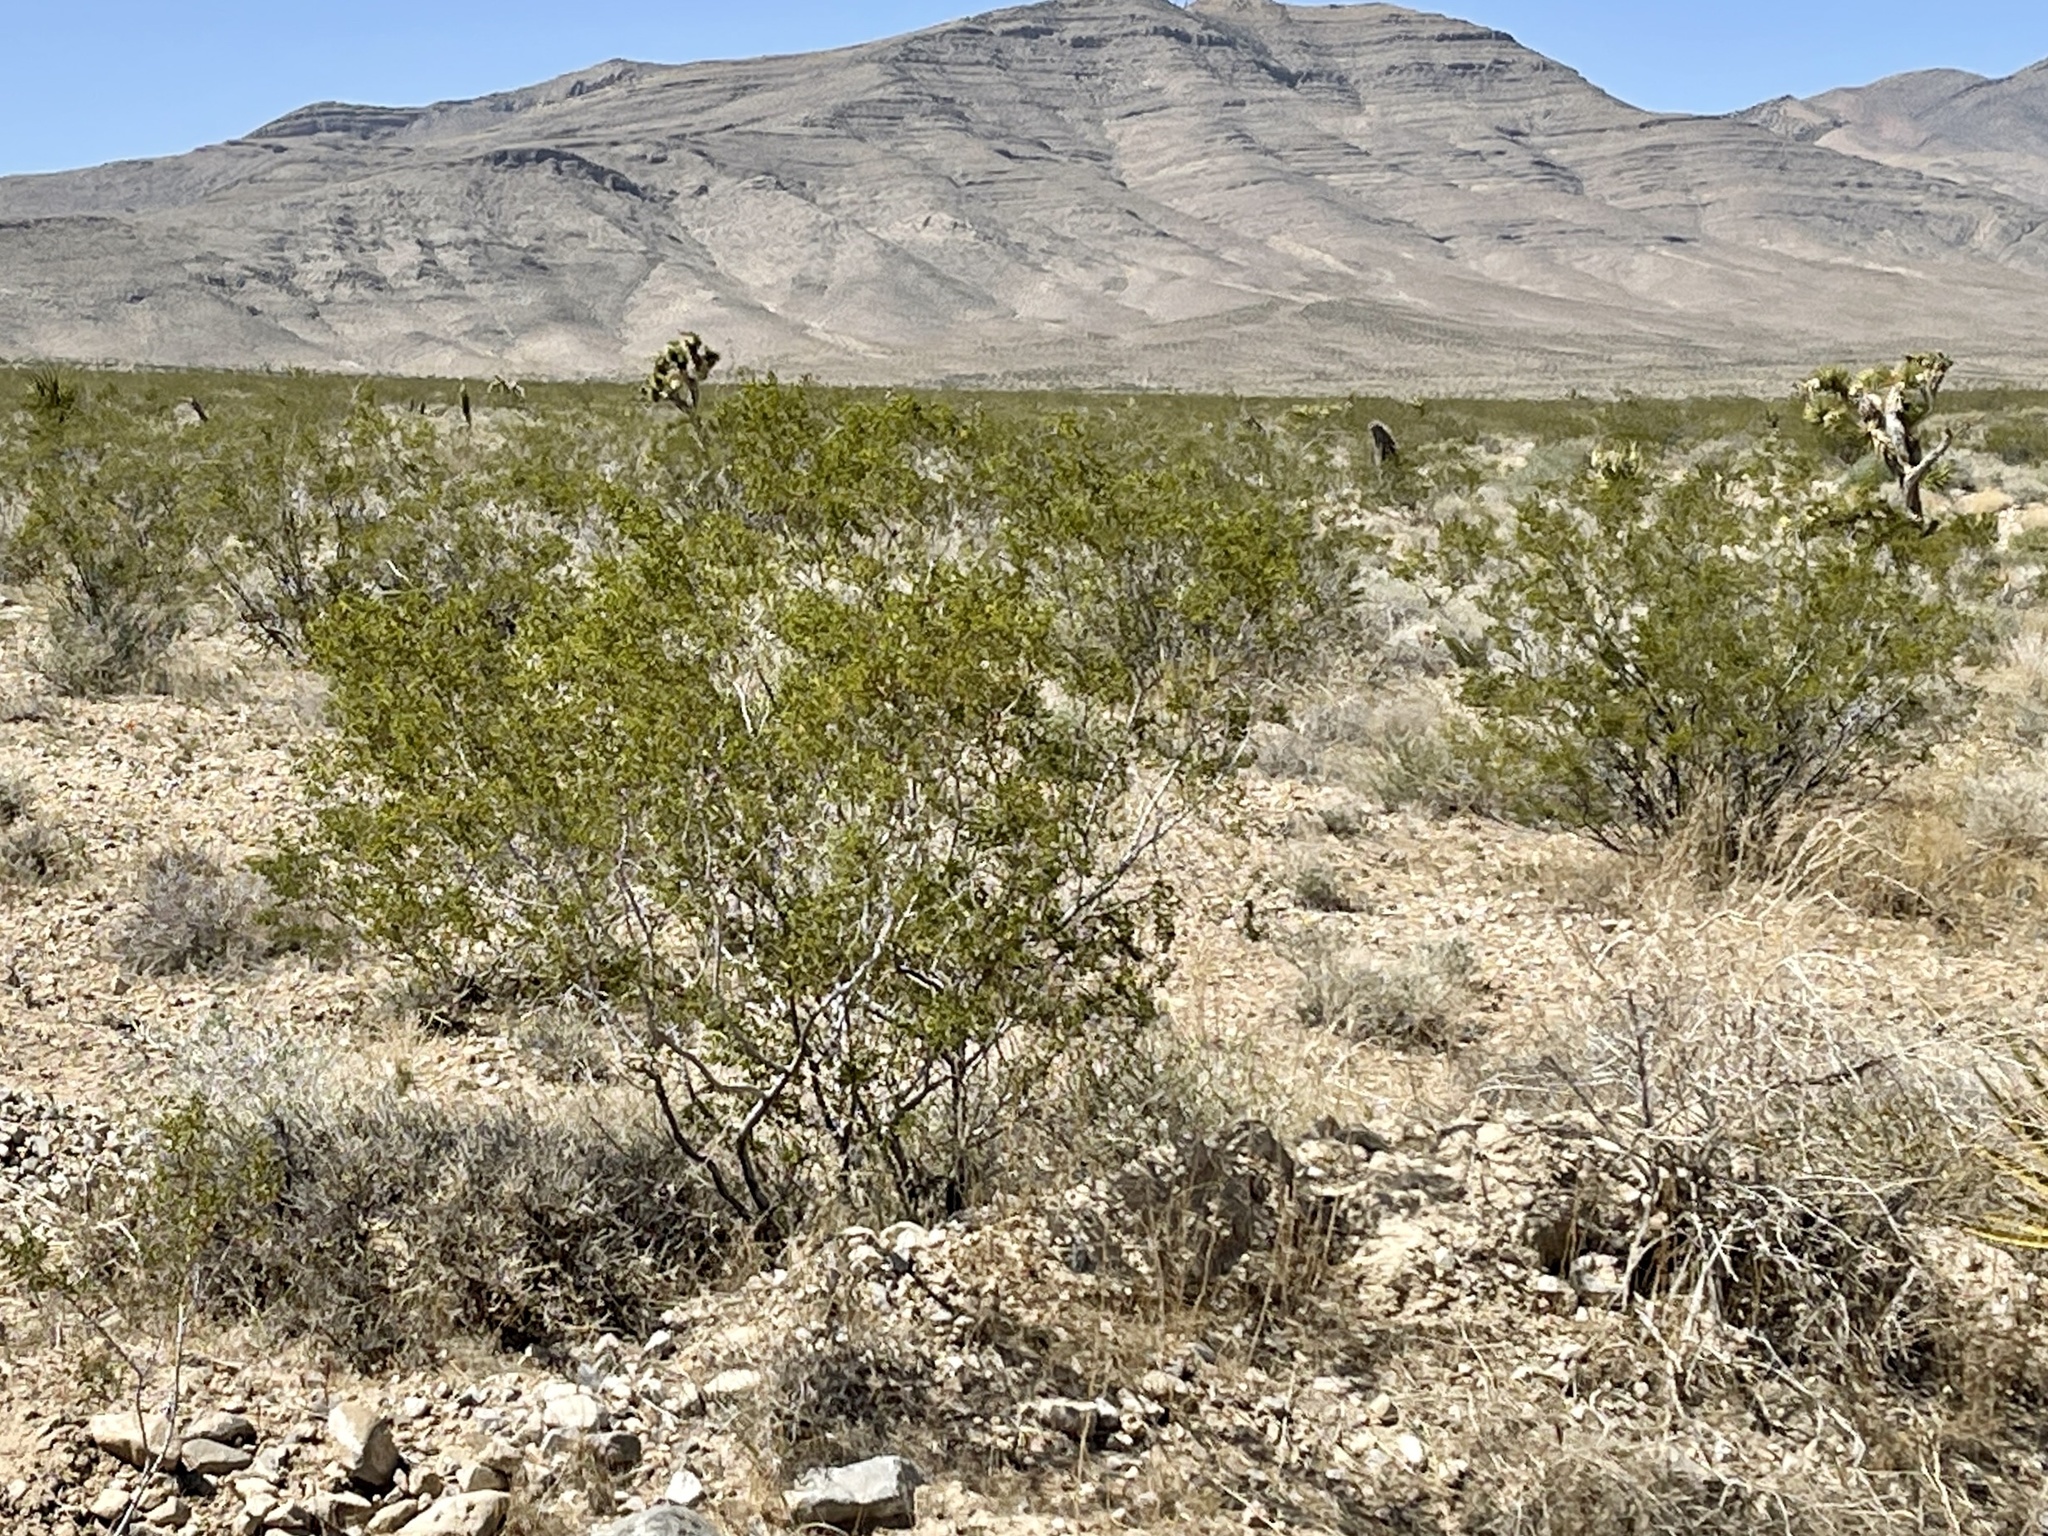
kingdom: Plantae
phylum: Tracheophyta
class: Magnoliopsida
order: Zygophyllales
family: Zygophyllaceae
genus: Larrea
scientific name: Larrea tridentata
